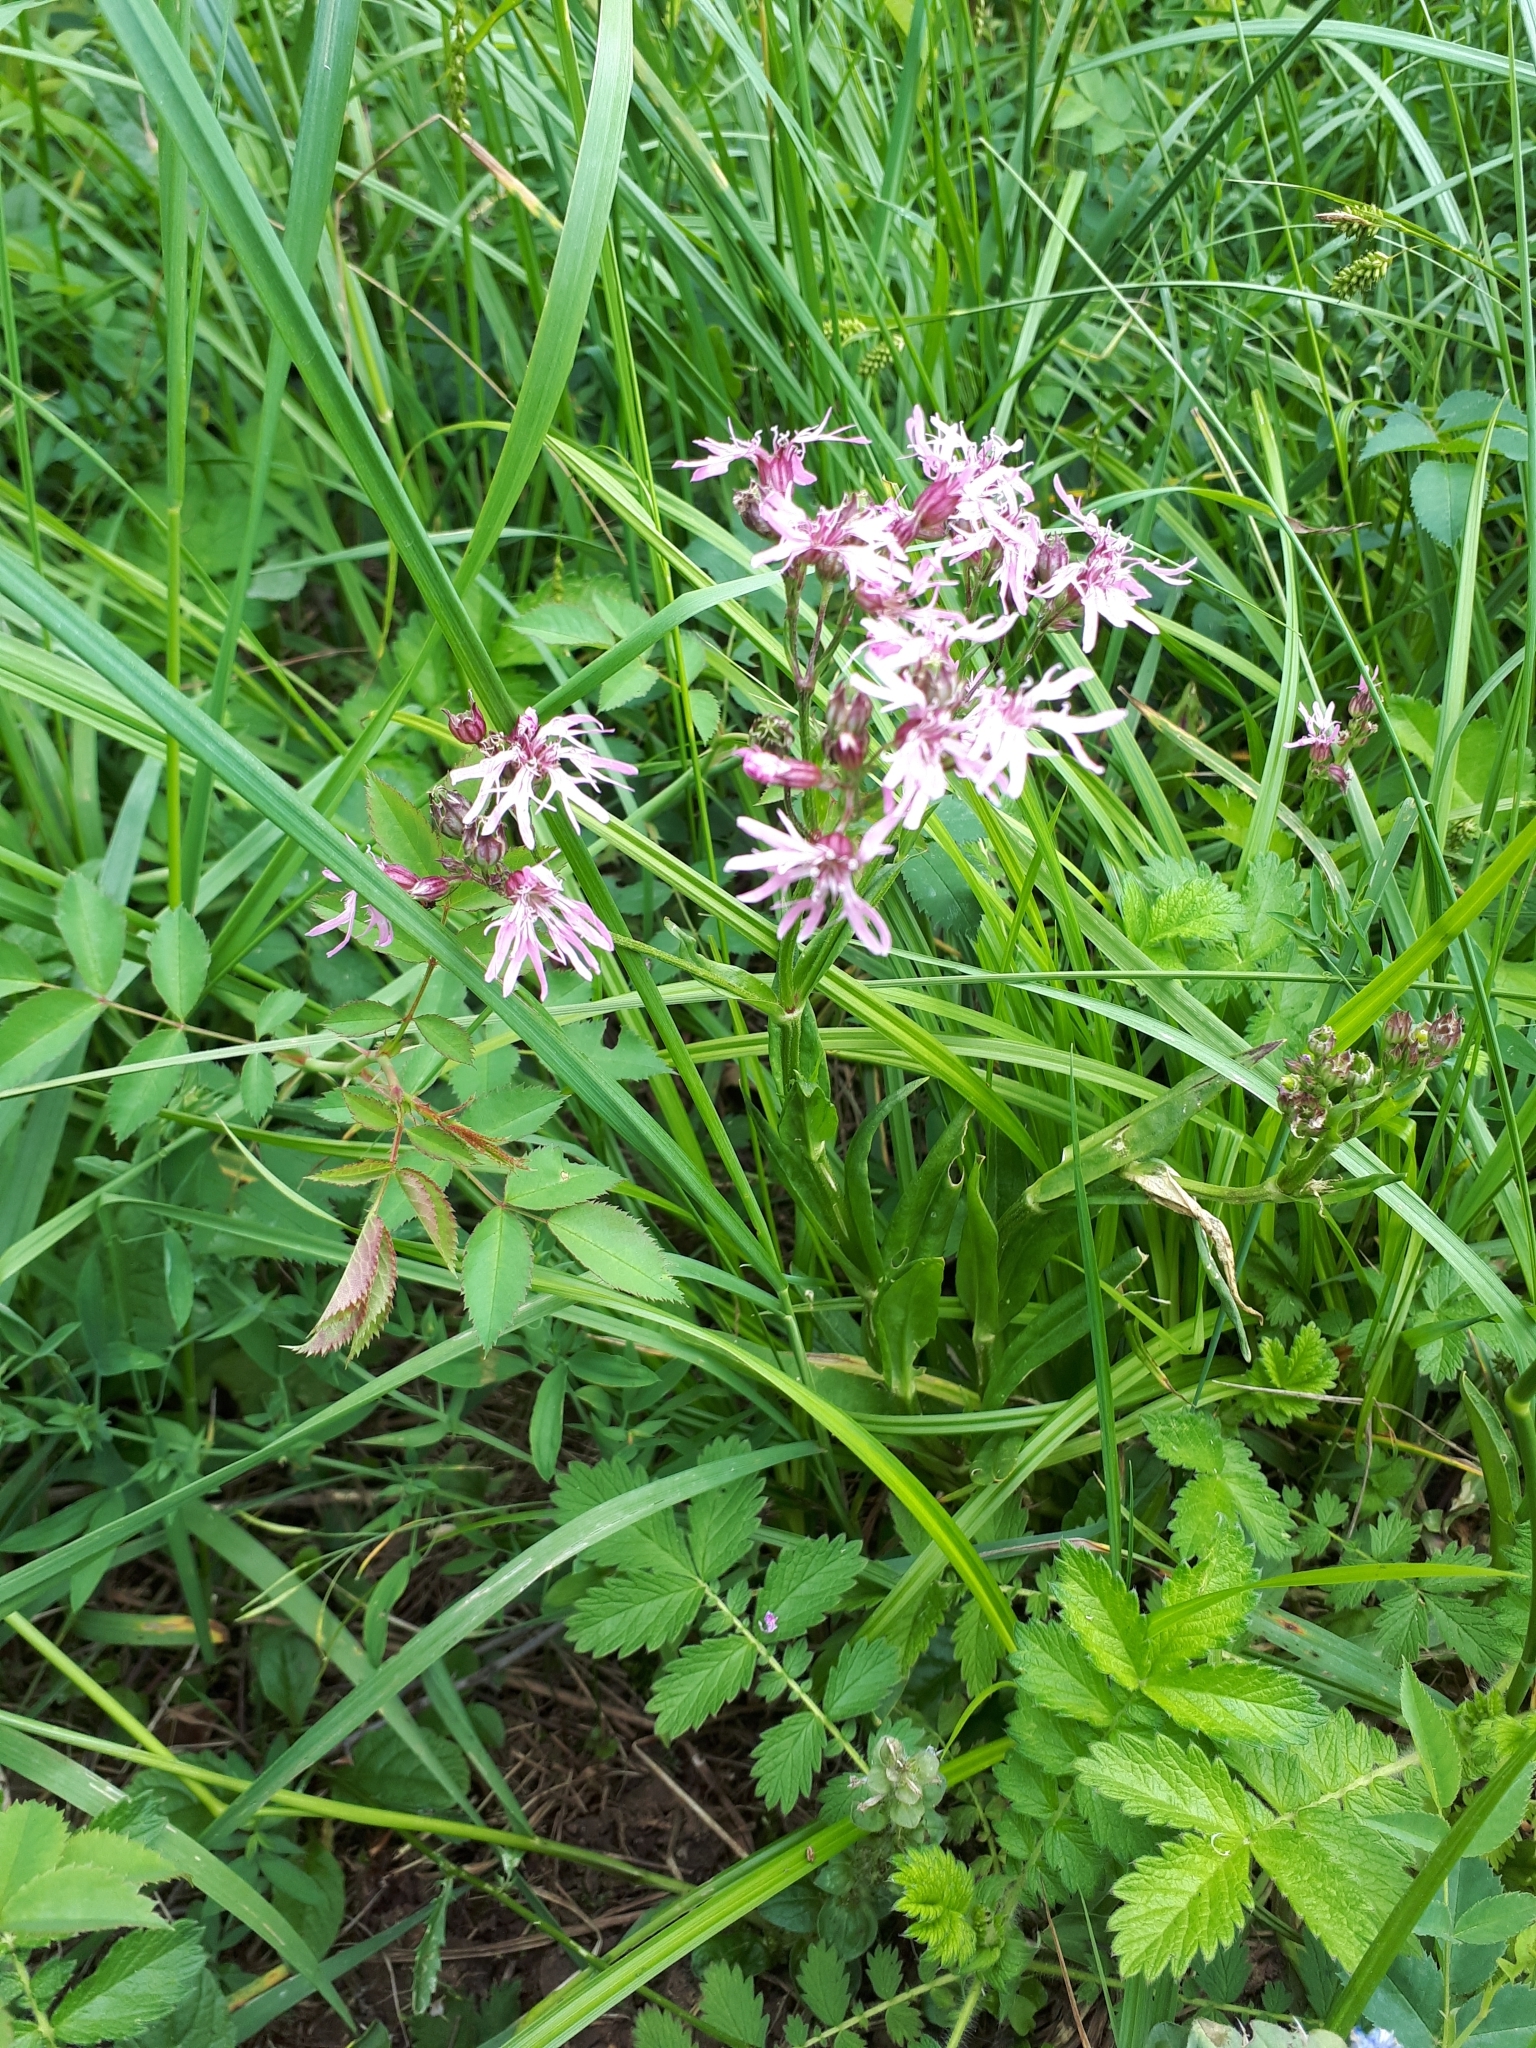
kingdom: Plantae
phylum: Tracheophyta
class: Magnoliopsida
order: Caryophyllales
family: Caryophyllaceae
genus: Silene
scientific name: Silene flos-cuculi
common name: Ragged-robin
